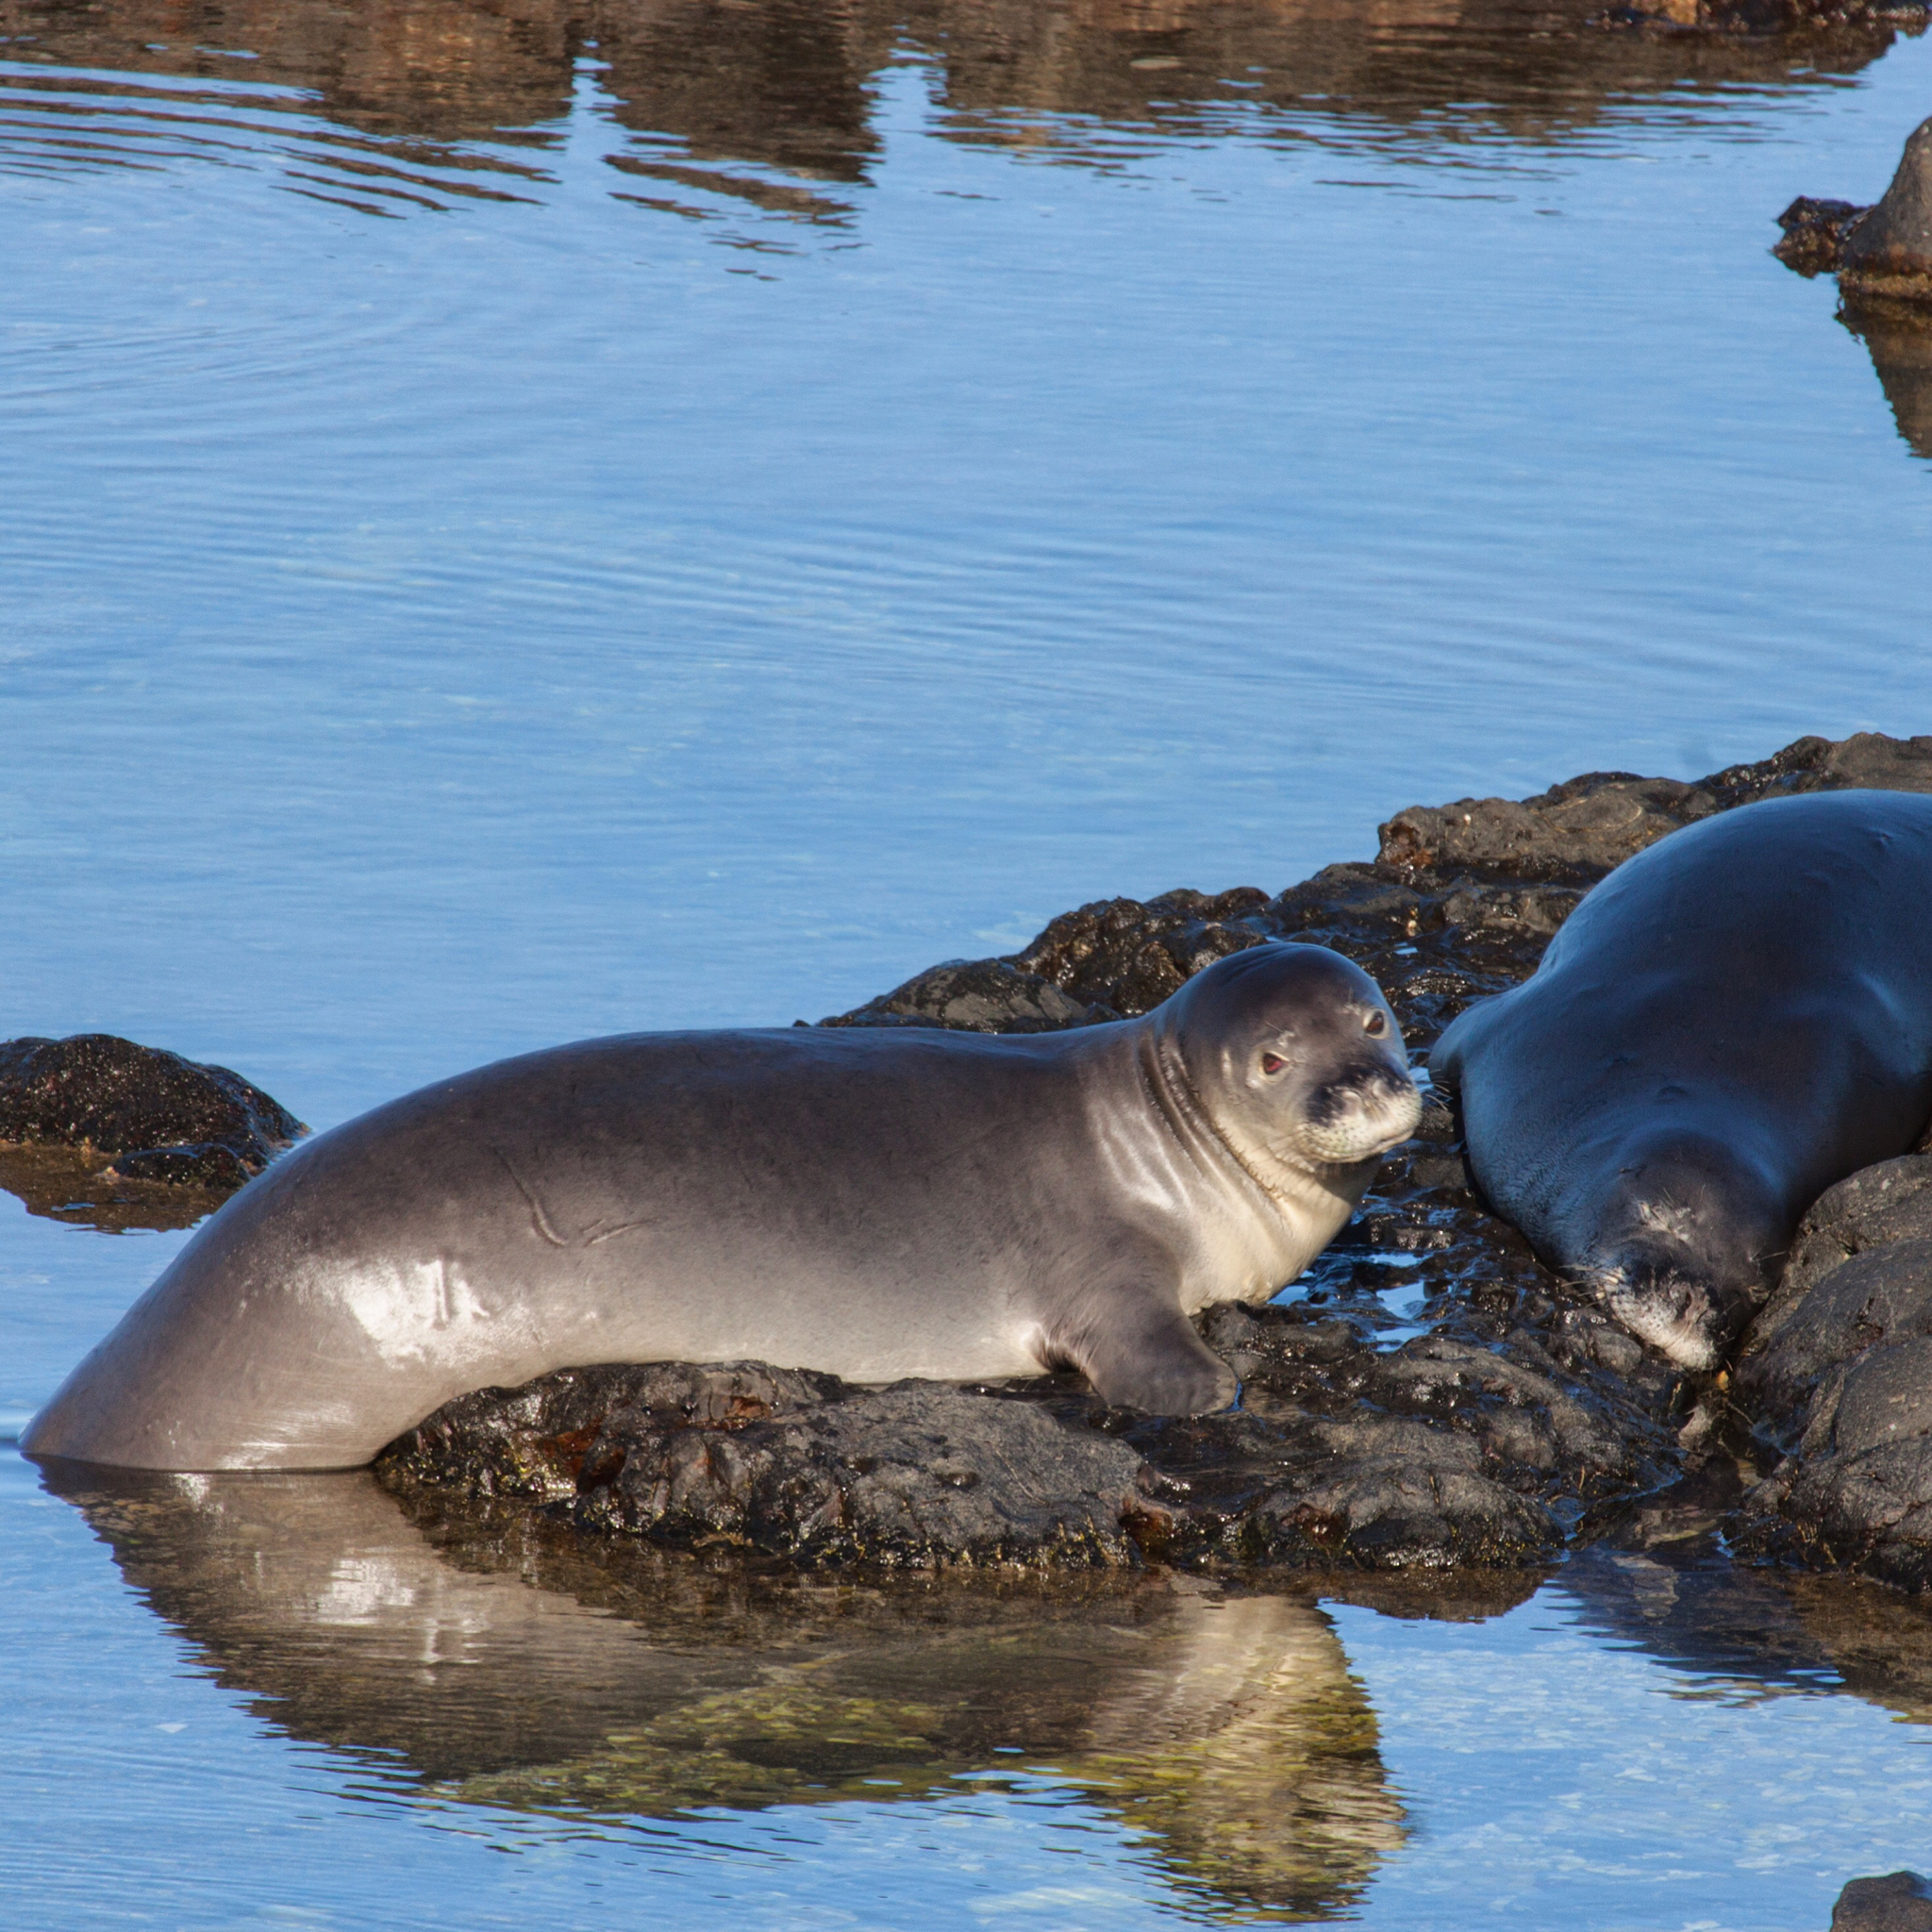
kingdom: Animalia
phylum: Chordata
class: Mammalia
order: Carnivora
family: Phocidae
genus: Neomonachus
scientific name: Neomonachus schauinslandi
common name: Hawaiian monk seal
